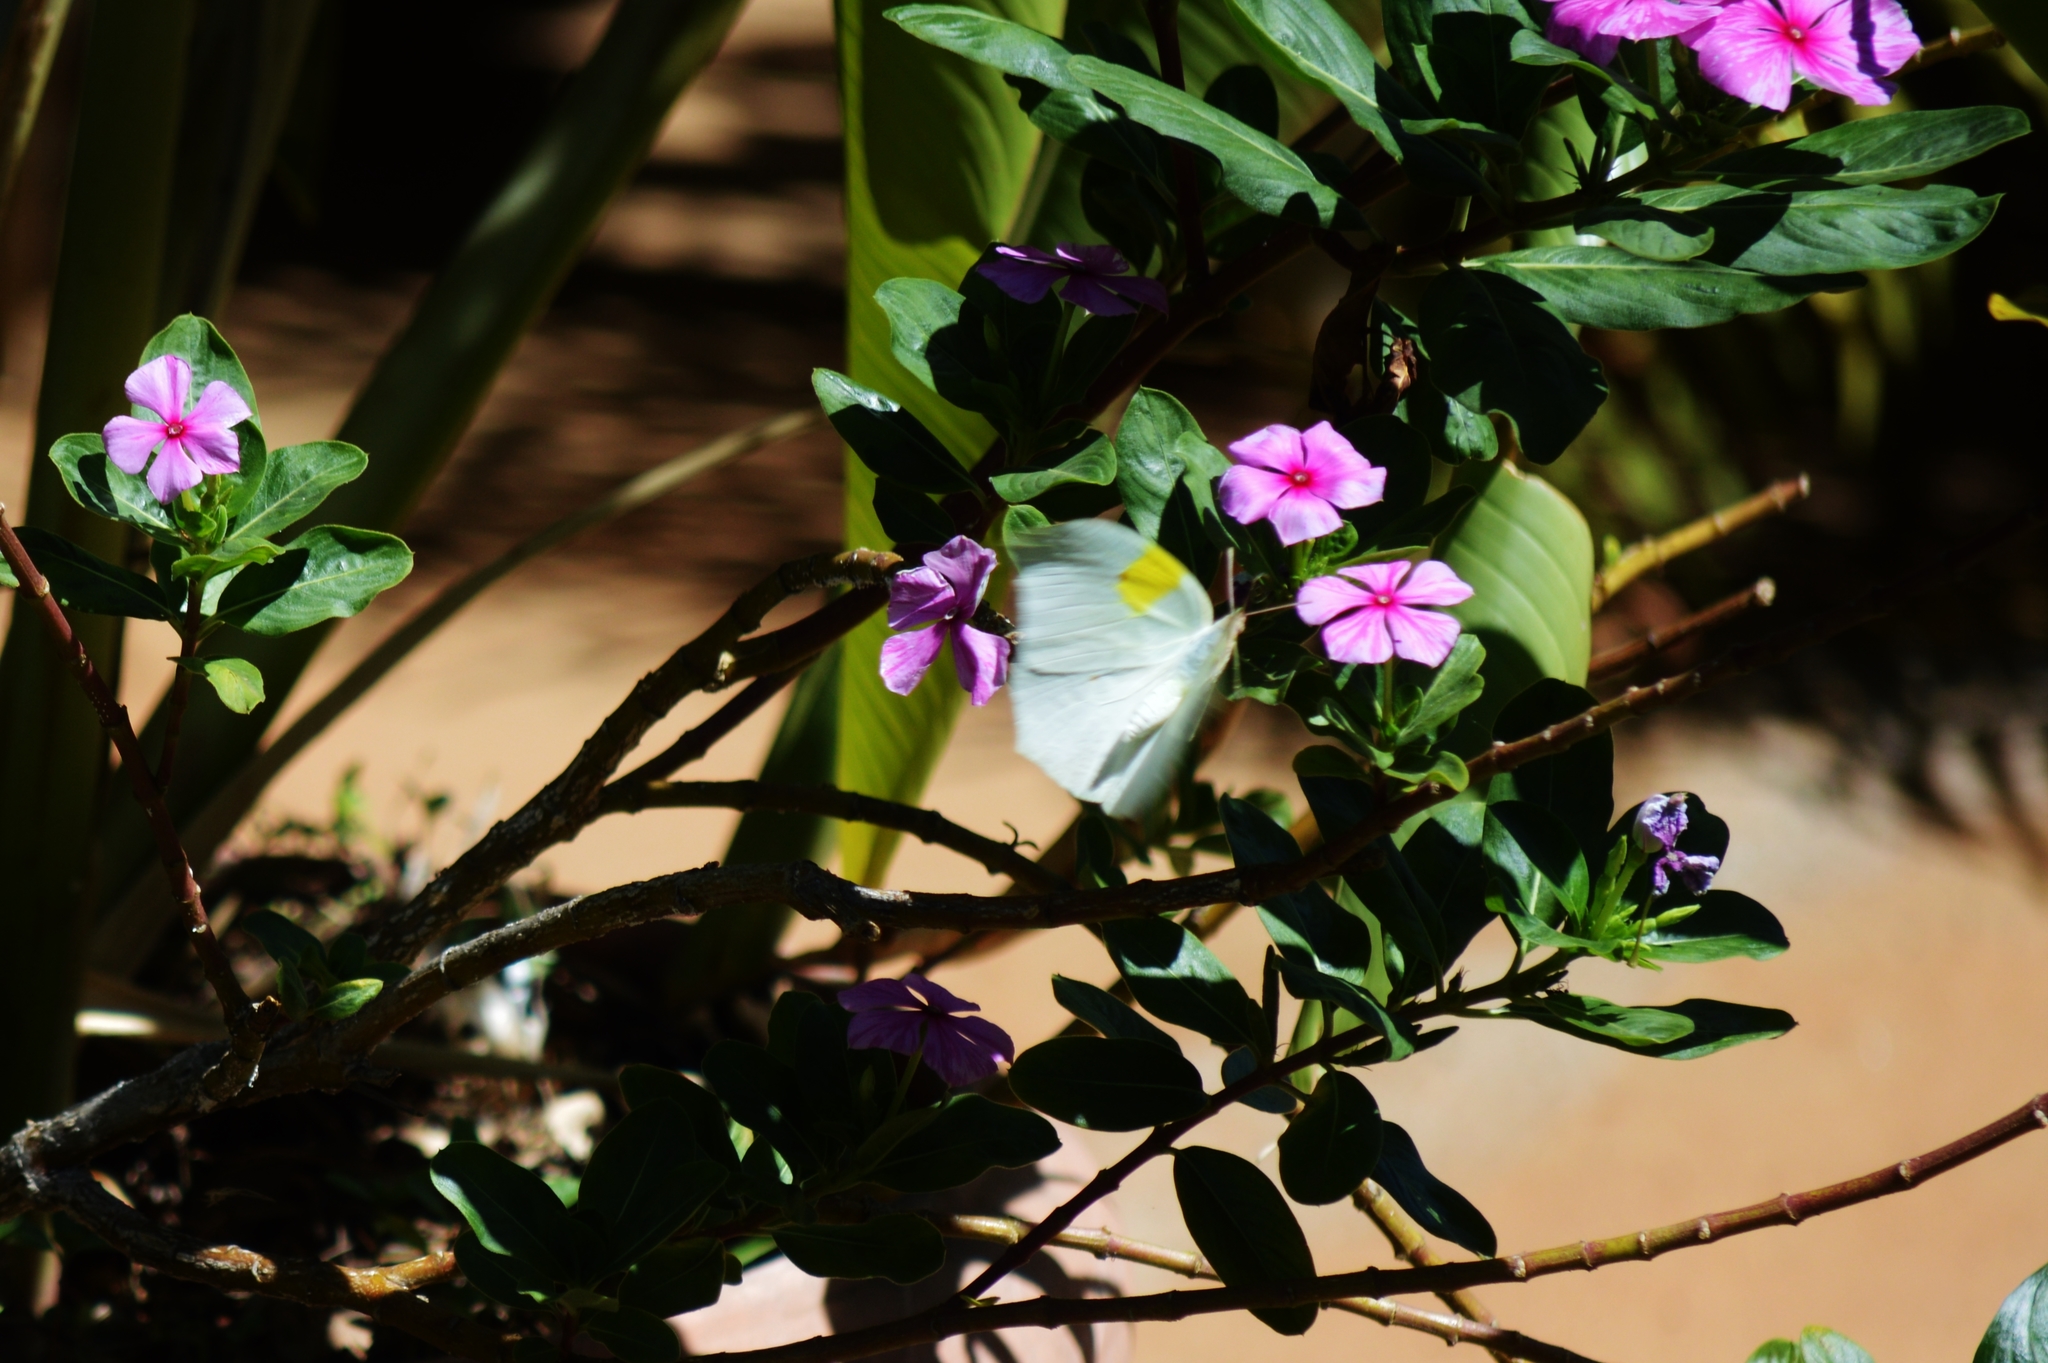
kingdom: Animalia
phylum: Arthropoda
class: Insecta
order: Lepidoptera
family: Pieridae
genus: Anteos
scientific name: Anteos clorinde
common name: White angled sulphur
